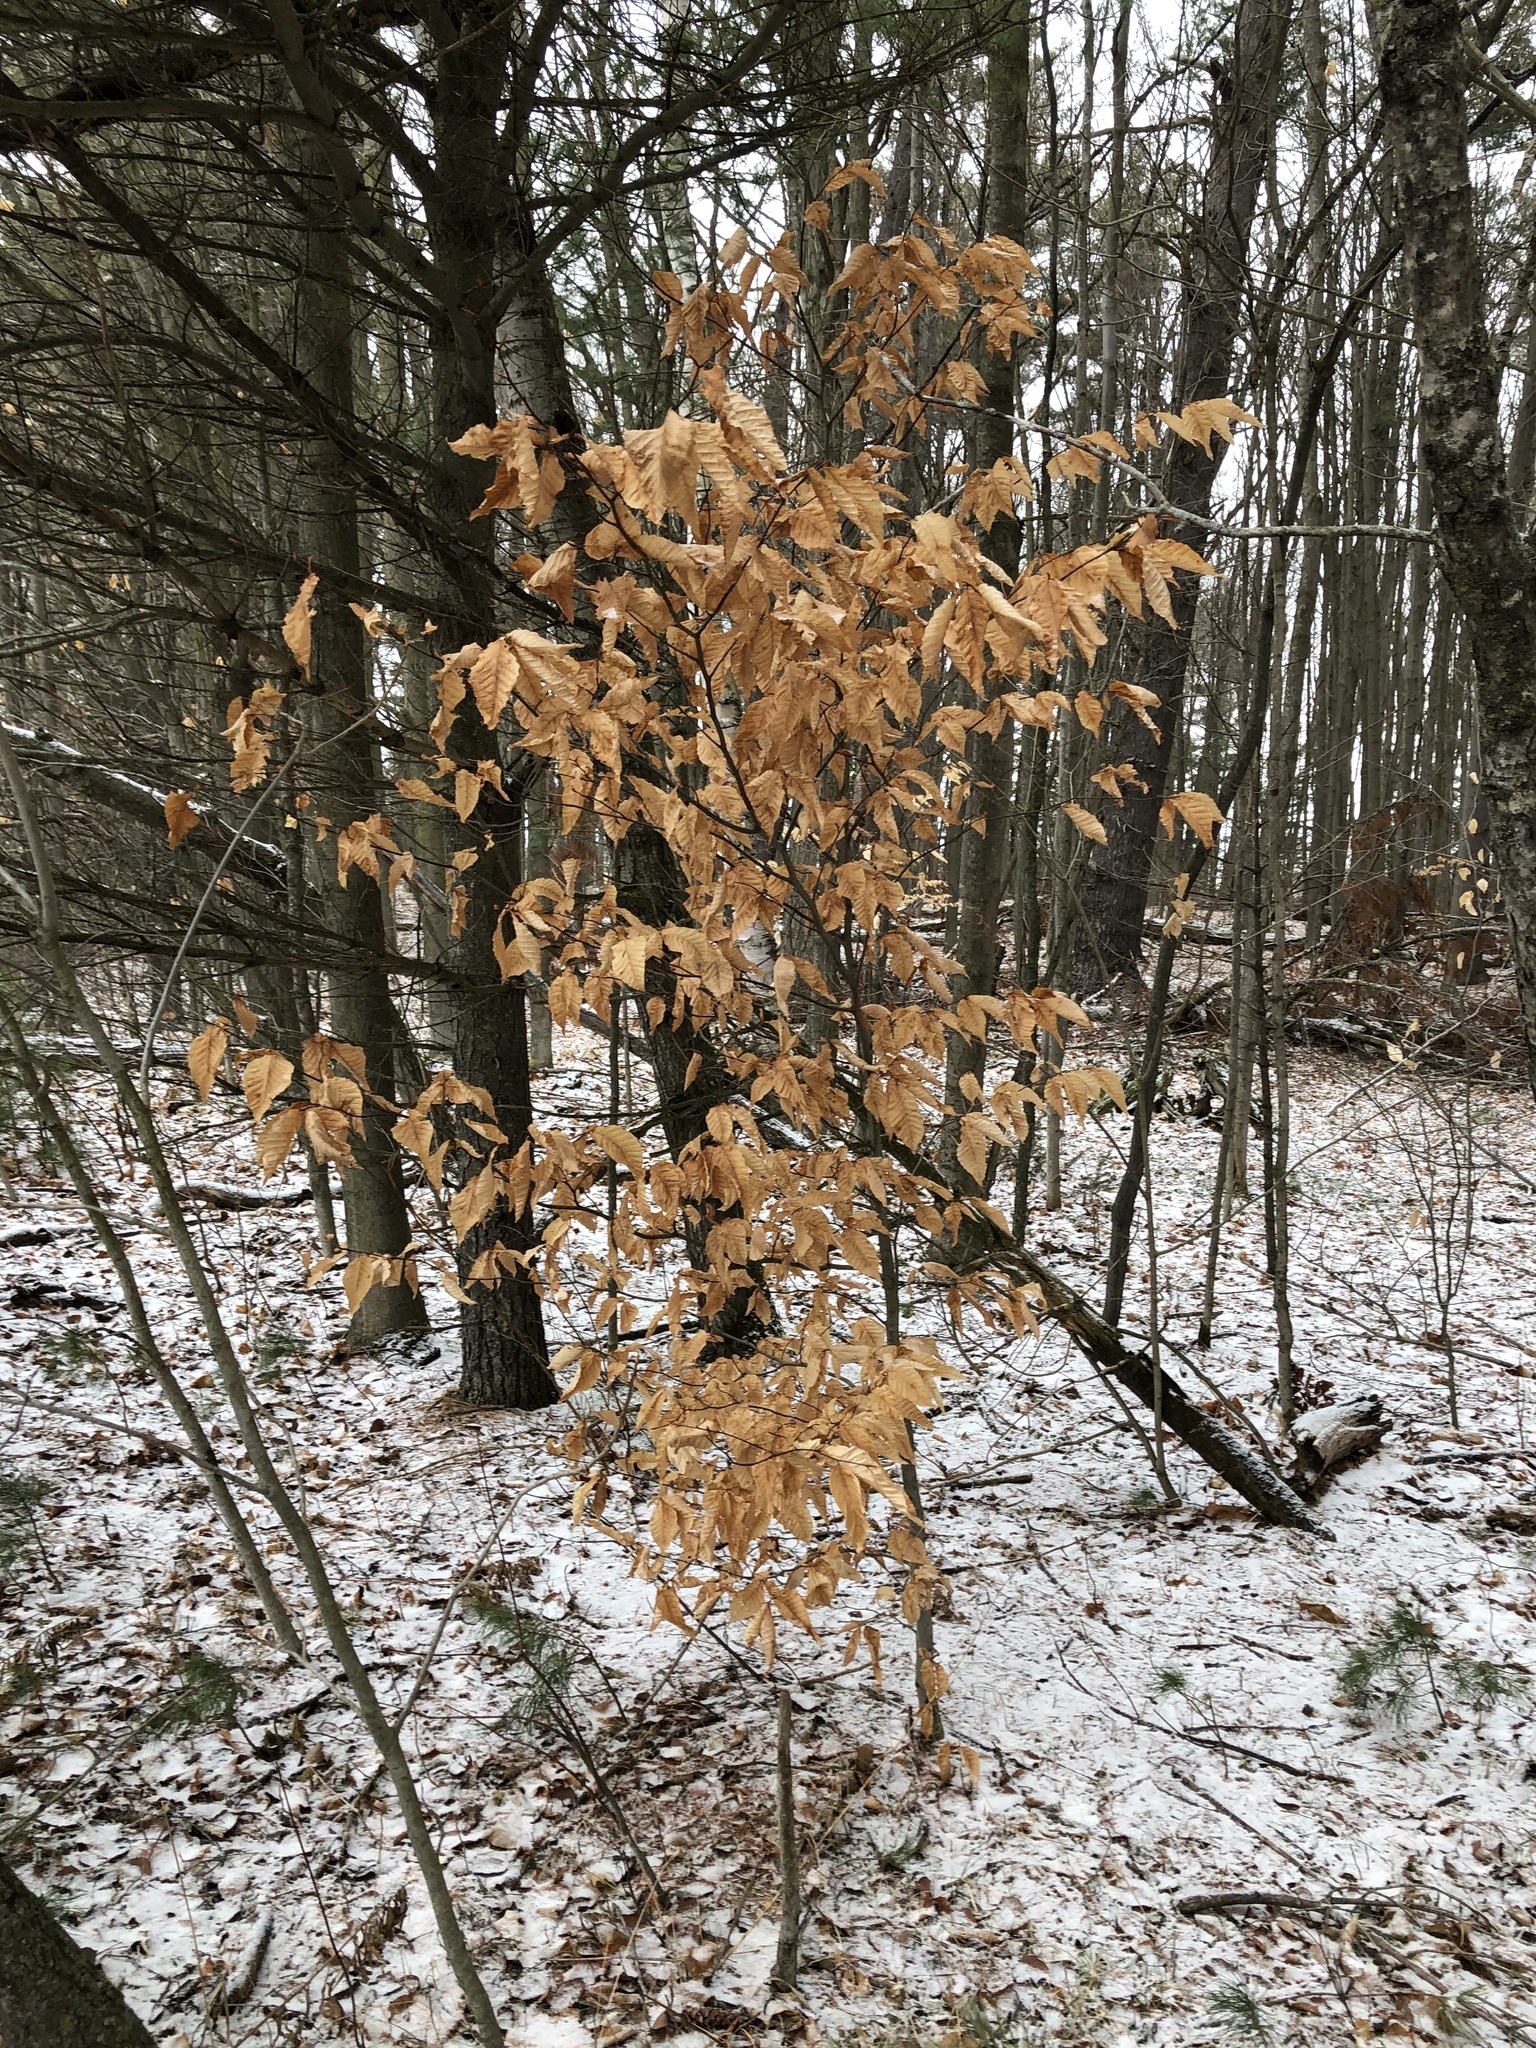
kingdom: Plantae
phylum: Tracheophyta
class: Magnoliopsida
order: Fagales
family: Fagaceae
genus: Fagus
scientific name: Fagus grandifolia
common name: American beech
